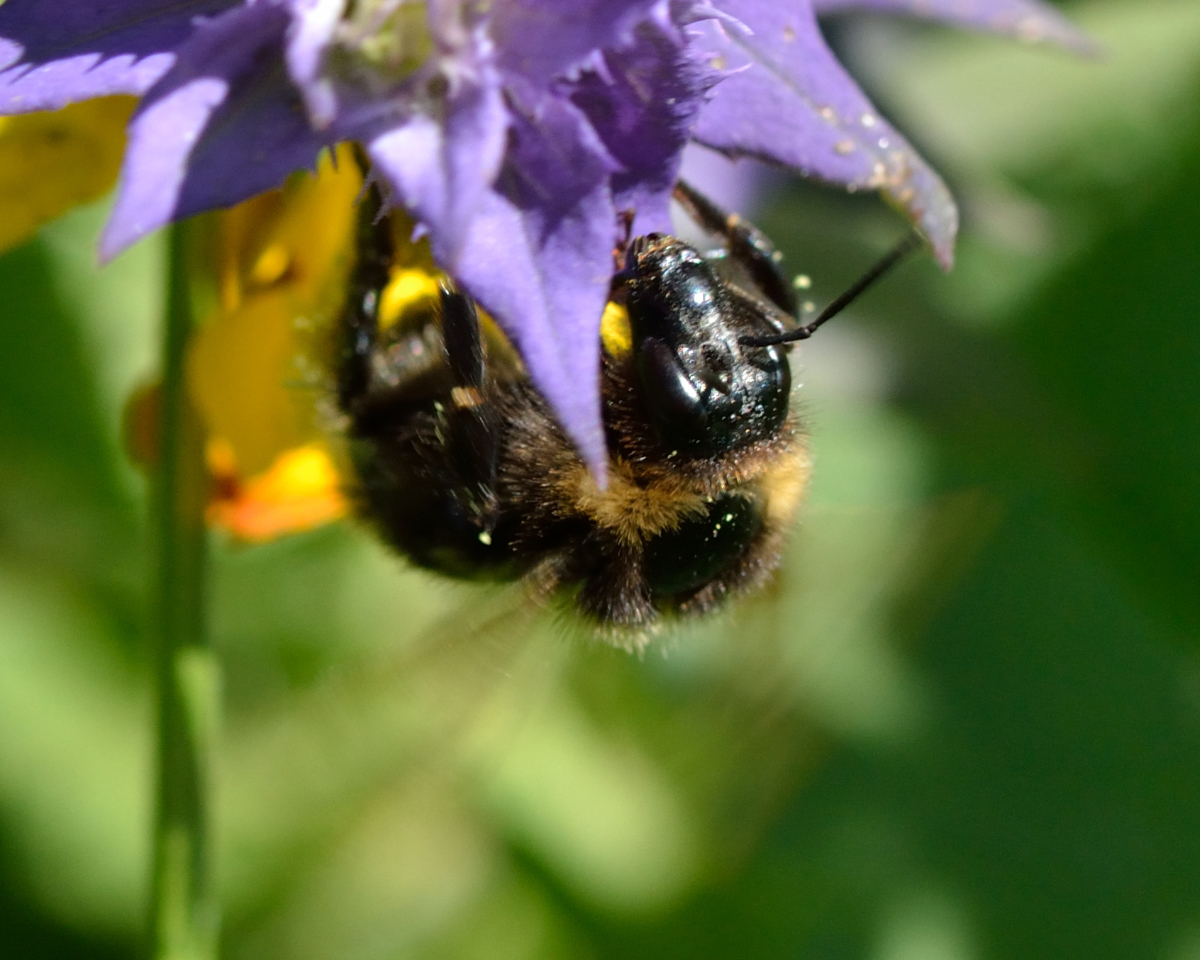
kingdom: Animalia
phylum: Arthropoda
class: Insecta
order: Hymenoptera
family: Apidae
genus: Bombus
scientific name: Bombus hortorum
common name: Garden bumblebee
